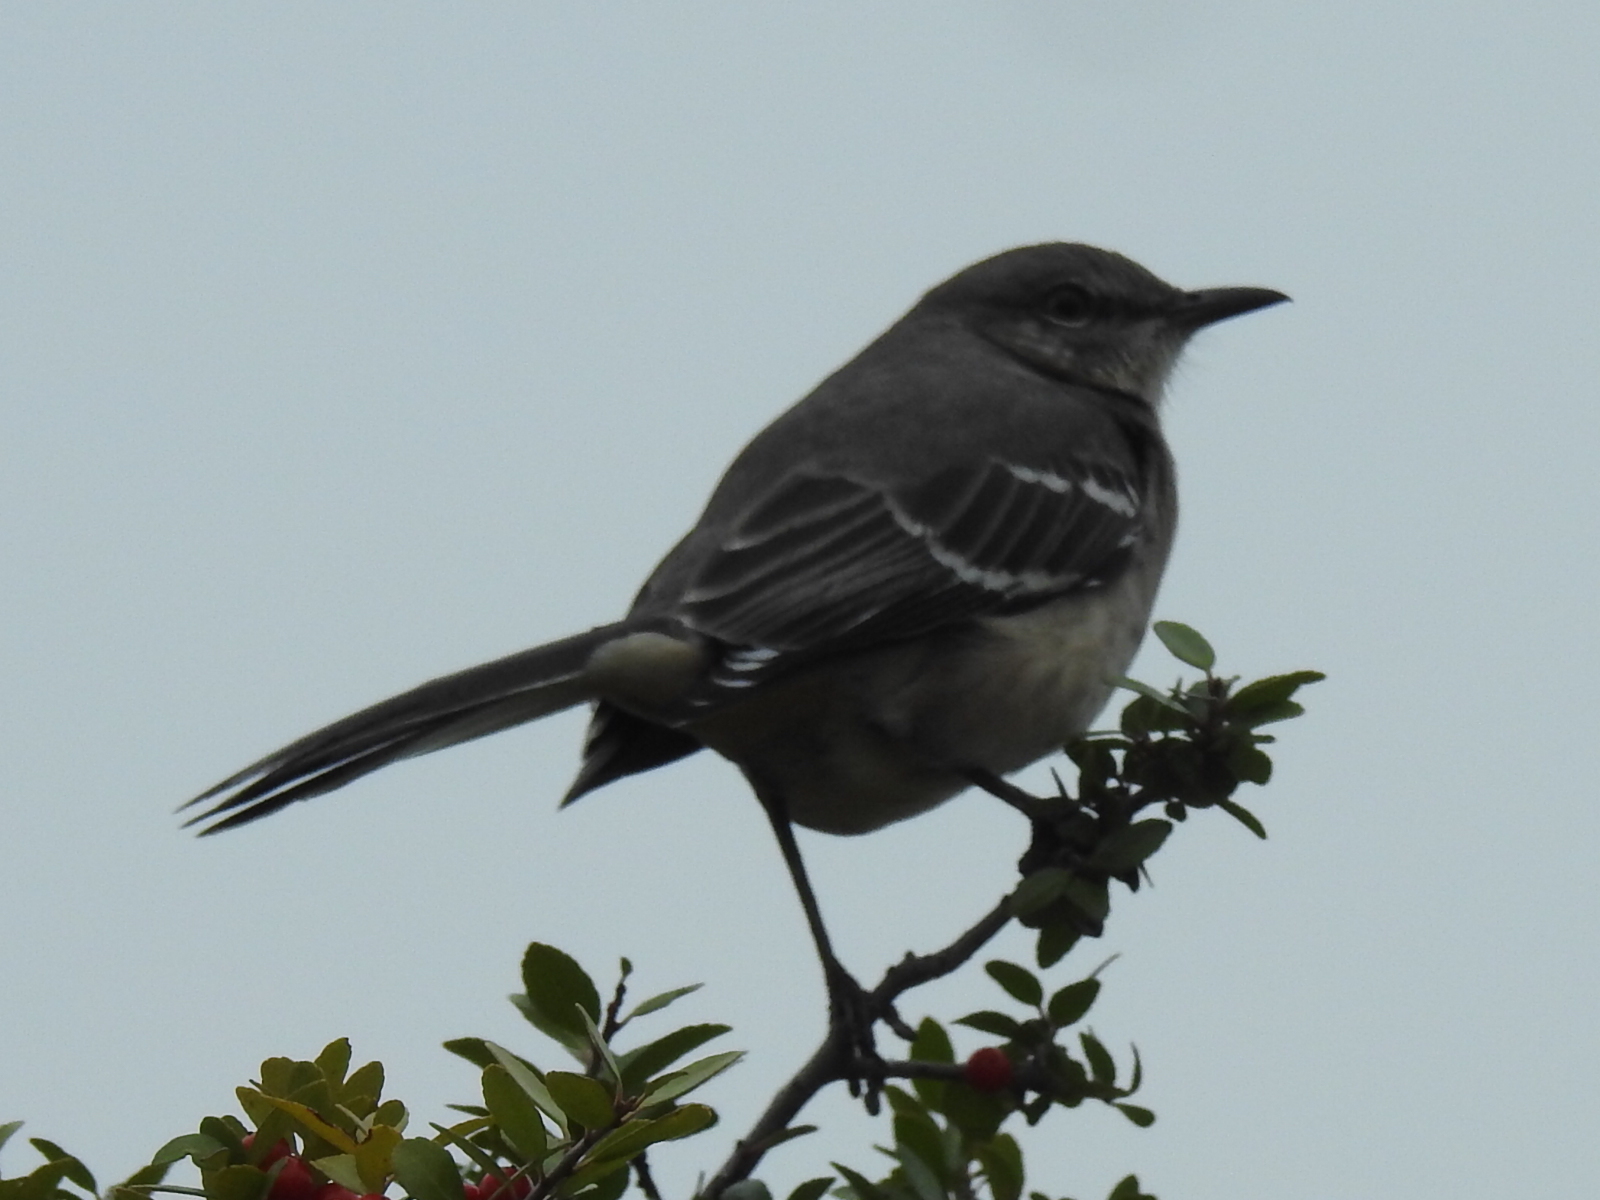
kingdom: Animalia
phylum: Chordata
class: Aves
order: Passeriformes
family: Mimidae
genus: Mimus
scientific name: Mimus polyglottos
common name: Northern mockingbird
